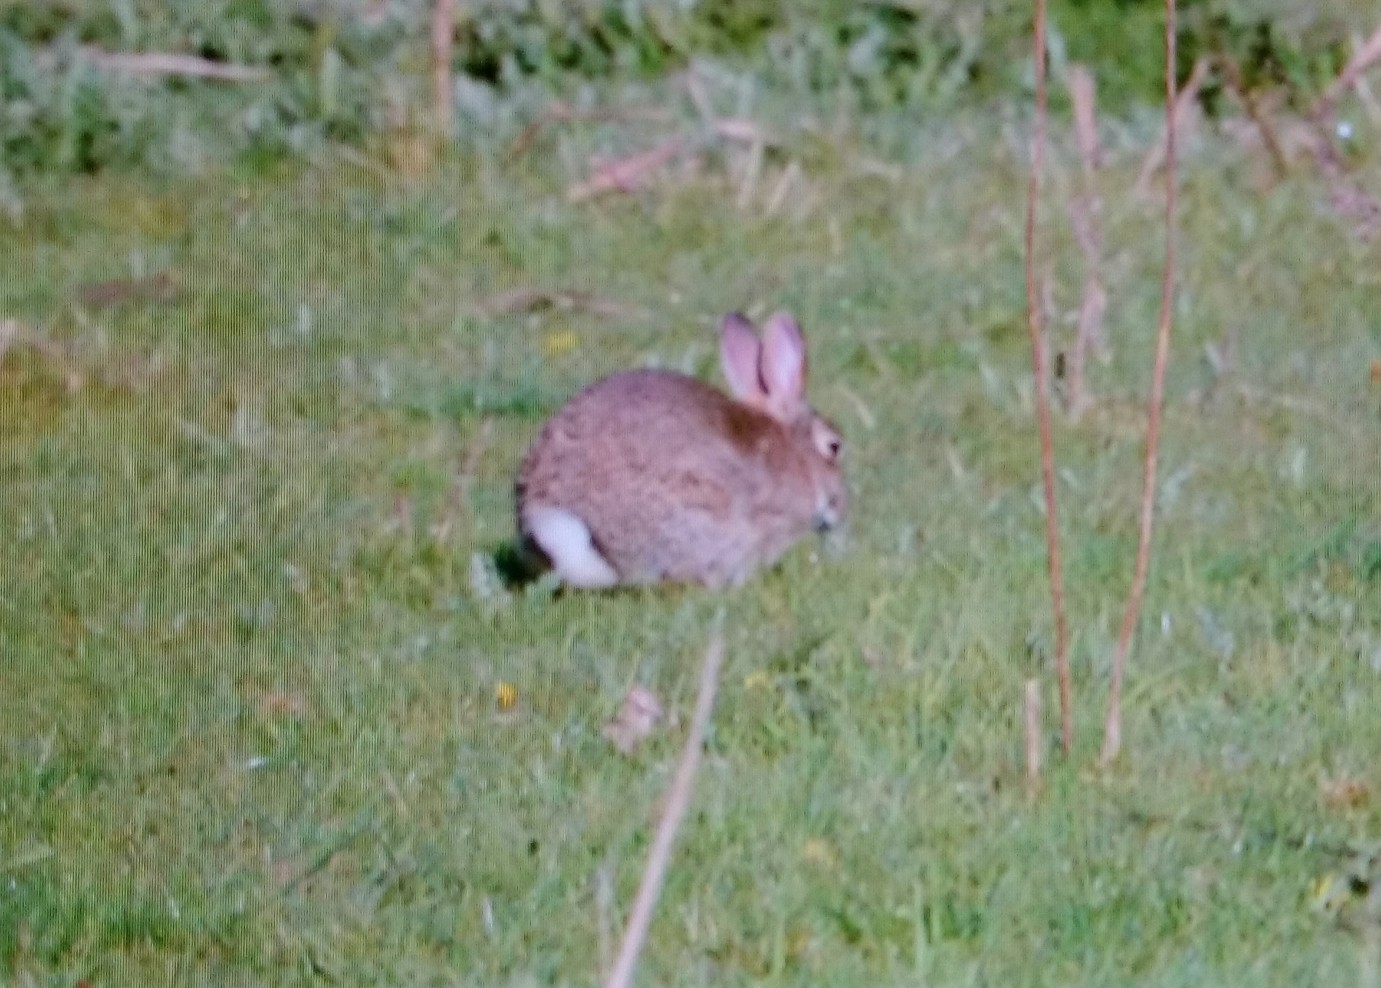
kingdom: Animalia
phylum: Chordata
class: Mammalia
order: Lagomorpha
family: Leporidae
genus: Oryctolagus
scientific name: Oryctolagus cuniculus
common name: European rabbit
